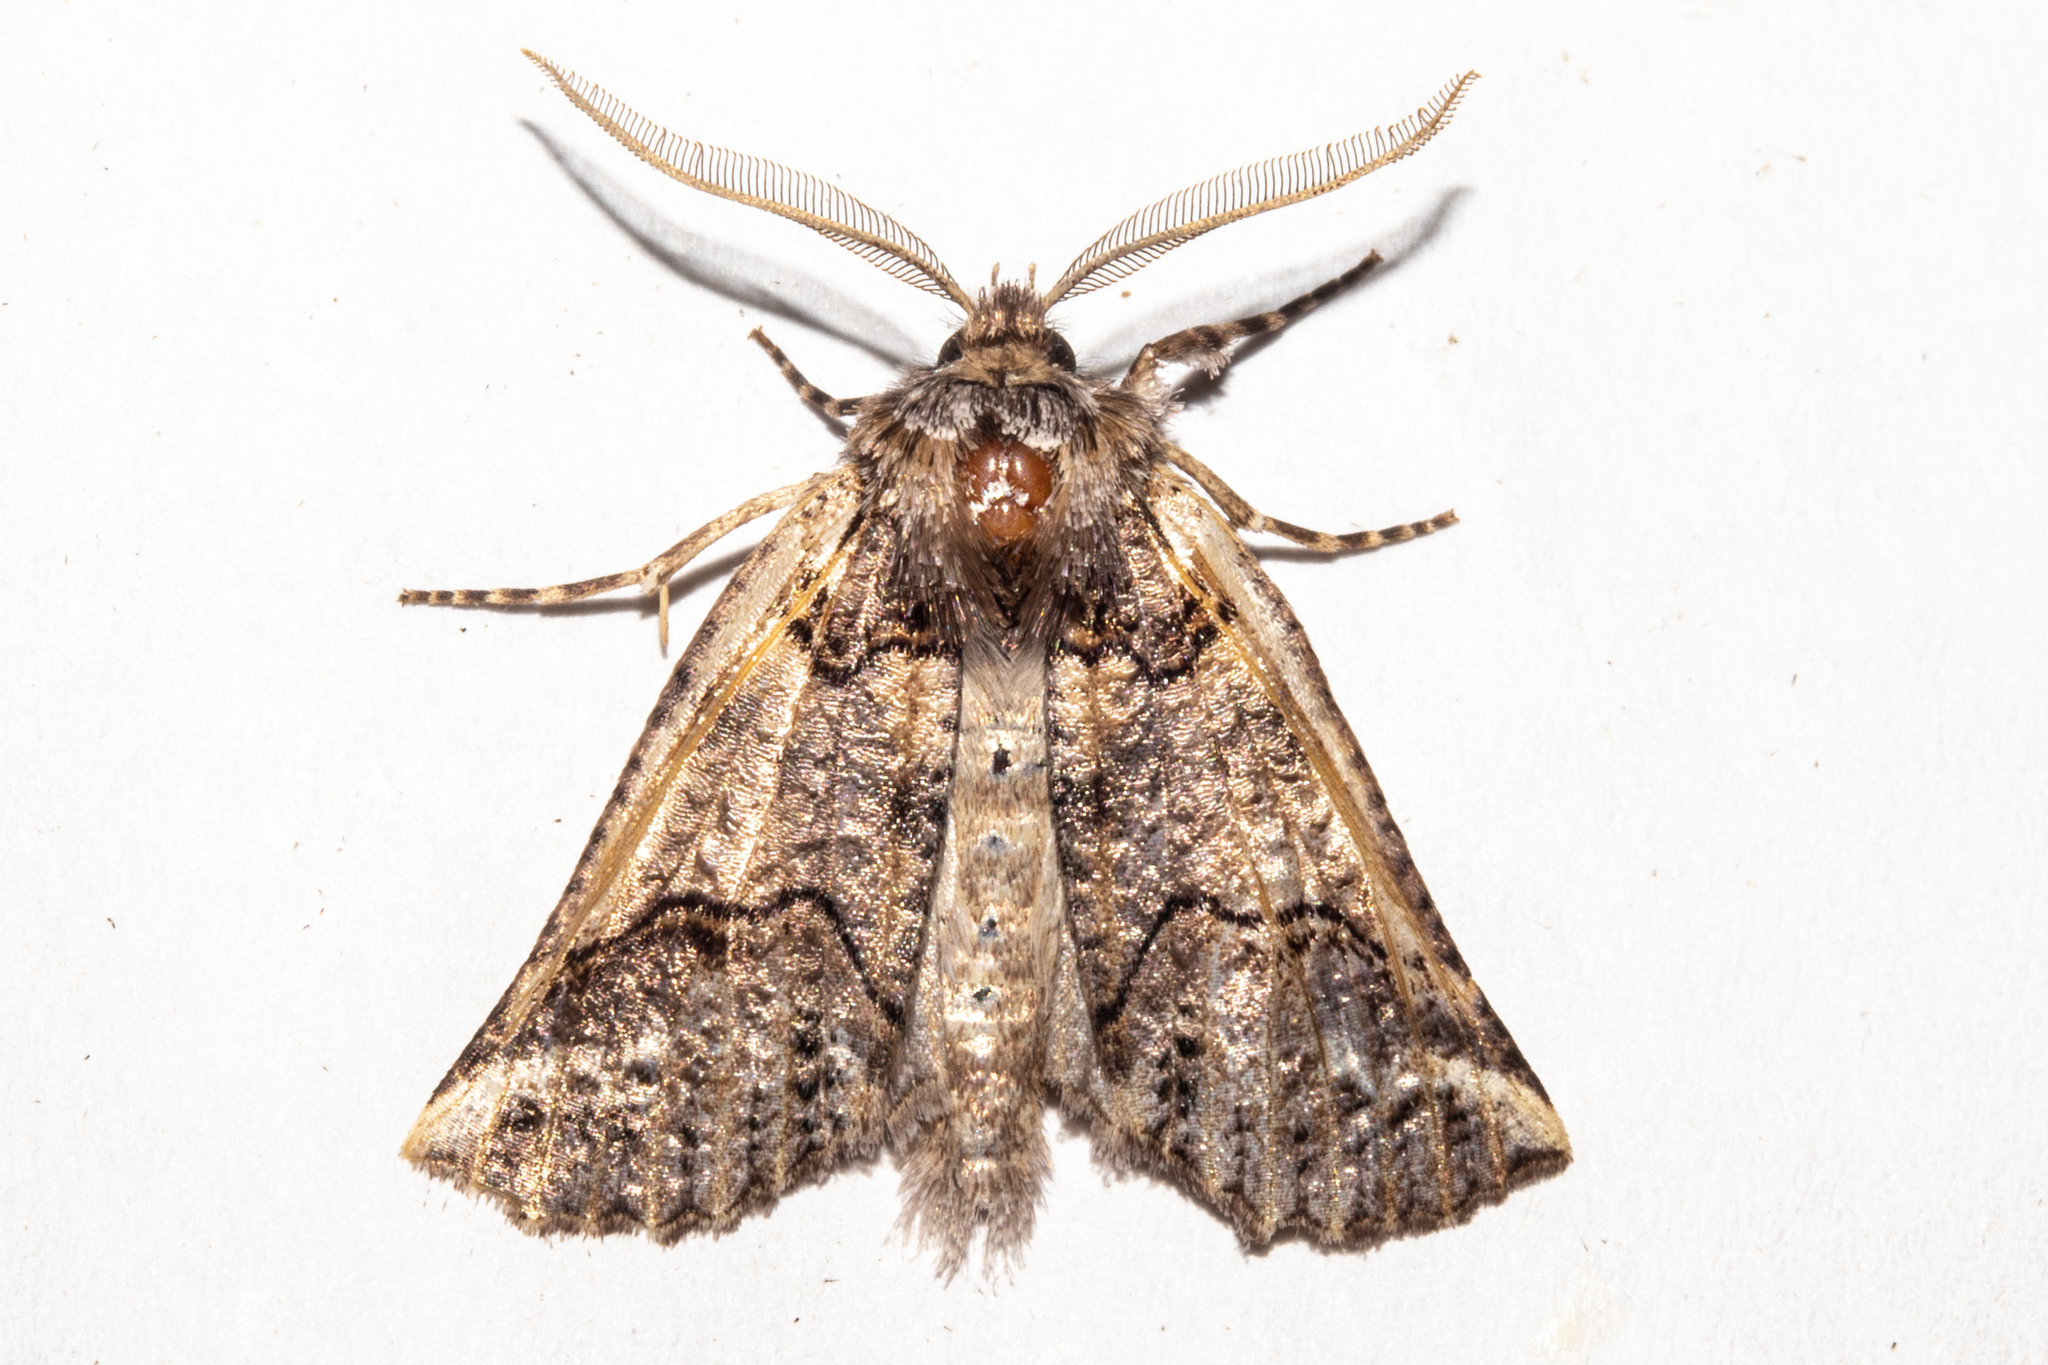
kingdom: Animalia
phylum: Arthropoda
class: Insecta
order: Lepidoptera
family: Geometridae
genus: Declana
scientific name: Declana
